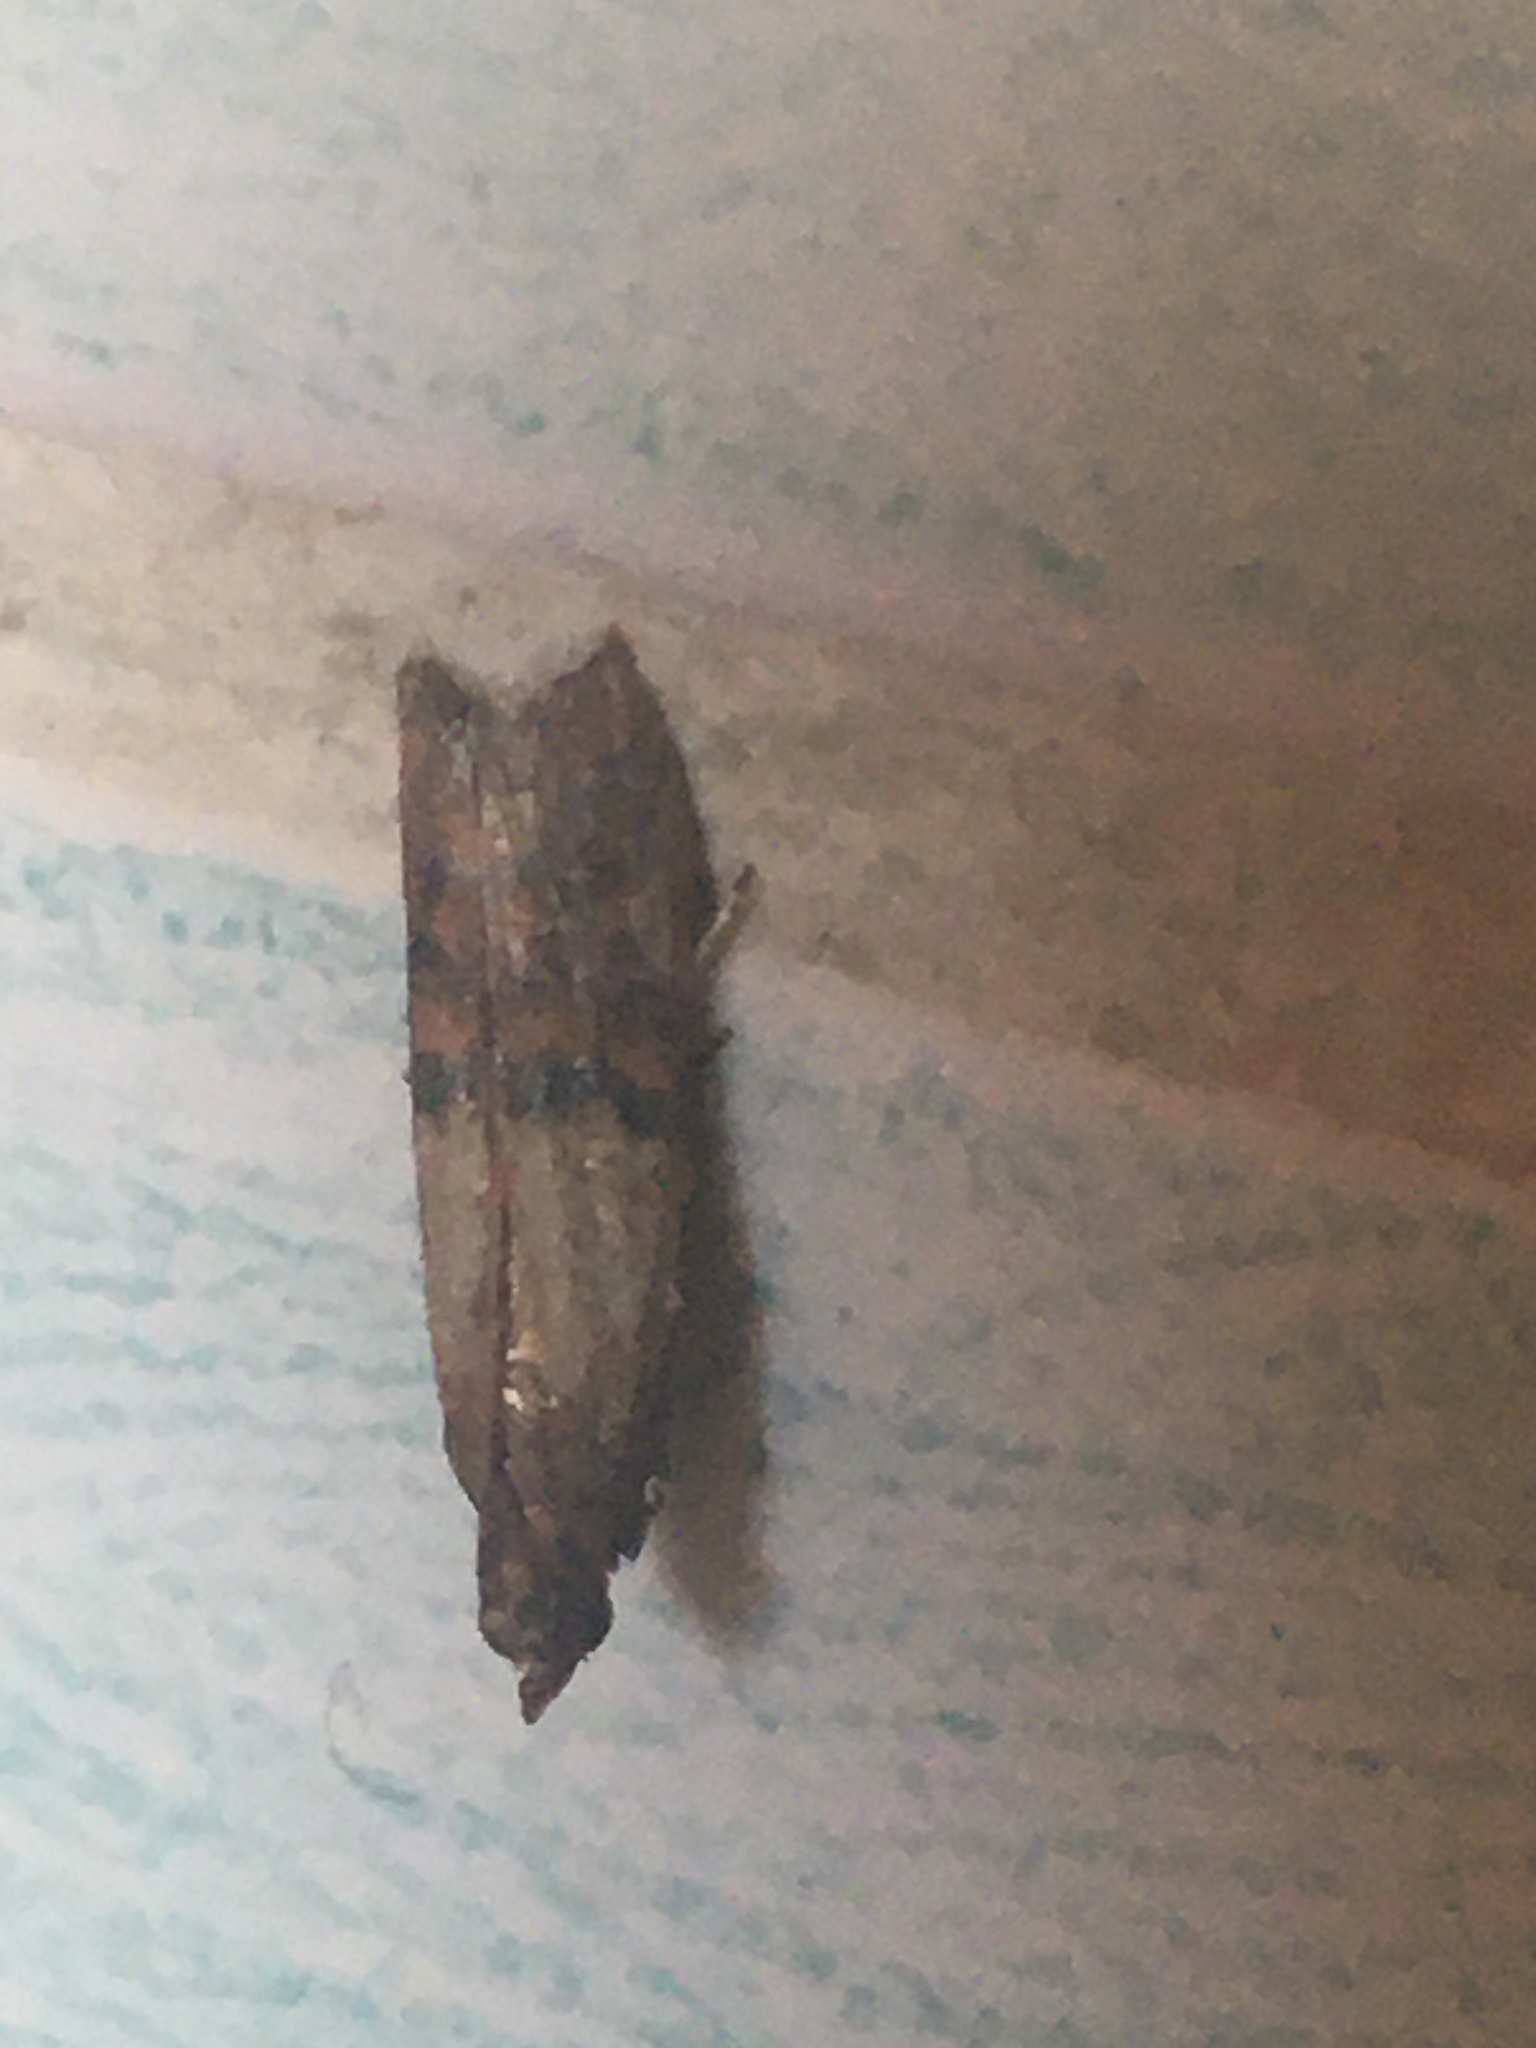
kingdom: Animalia
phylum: Arthropoda
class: Insecta
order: Lepidoptera
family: Pyralidae
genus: Plodia
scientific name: Plodia interpunctella
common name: Indian meal moth
